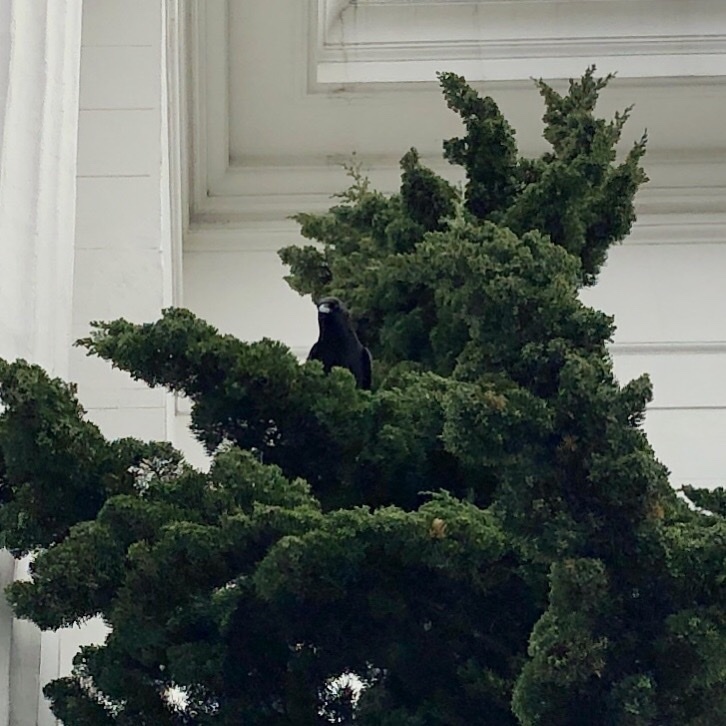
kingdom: Animalia
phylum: Chordata
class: Aves
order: Passeriformes
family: Corvidae
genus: Corvus
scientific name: Corvus brachyrhynchos
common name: American crow
